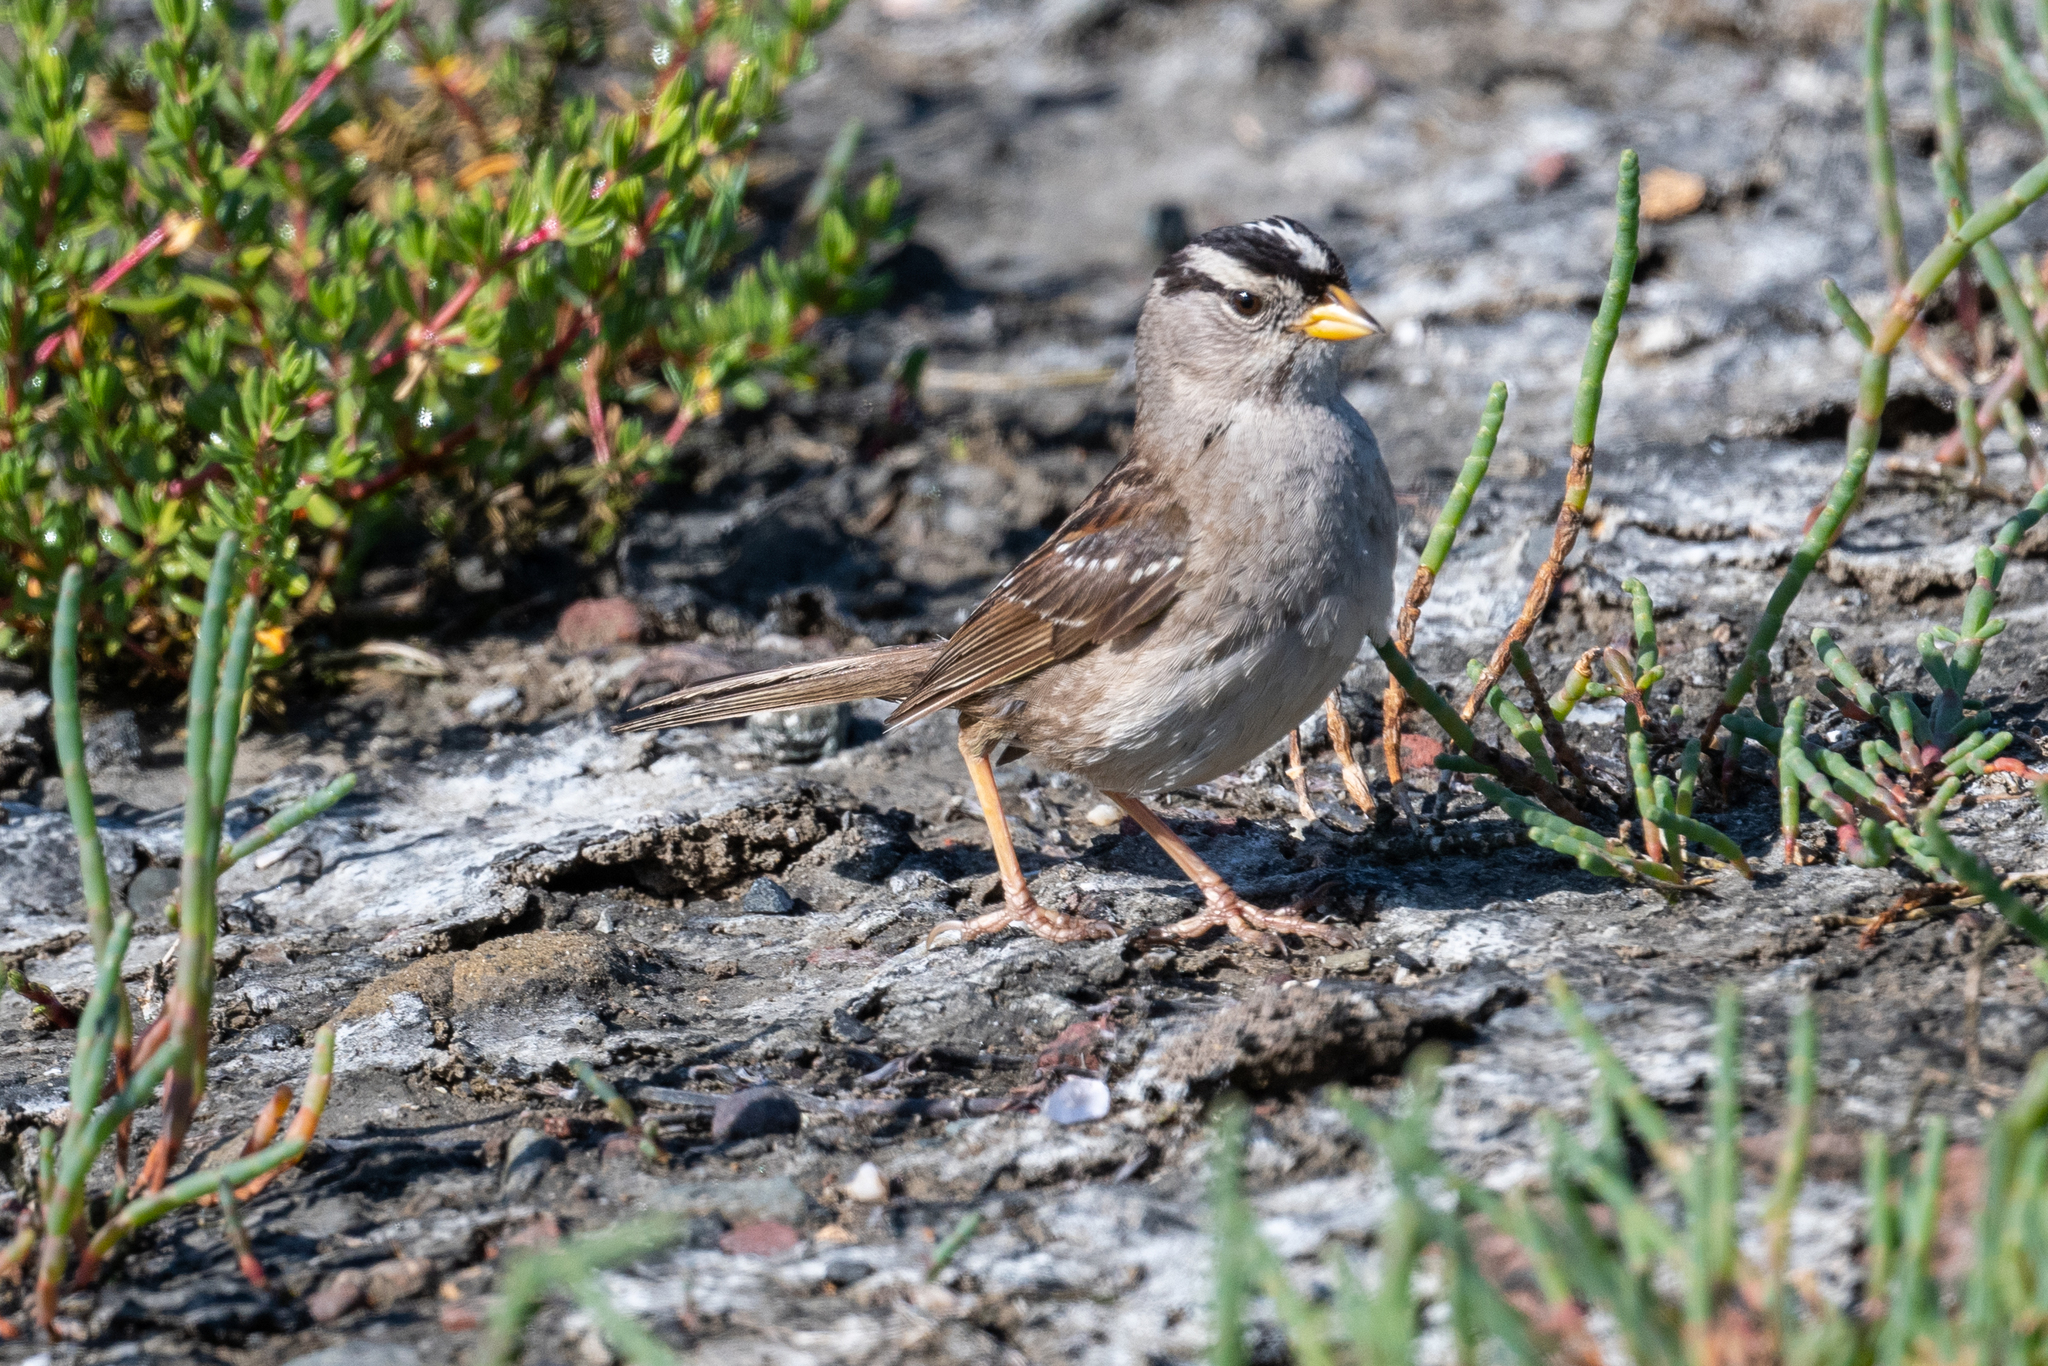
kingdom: Animalia
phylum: Chordata
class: Aves
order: Passeriformes
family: Passerellidae
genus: Zonotrichia
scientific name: Zonotrichia leucophrys
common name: White-crowned sparrow
